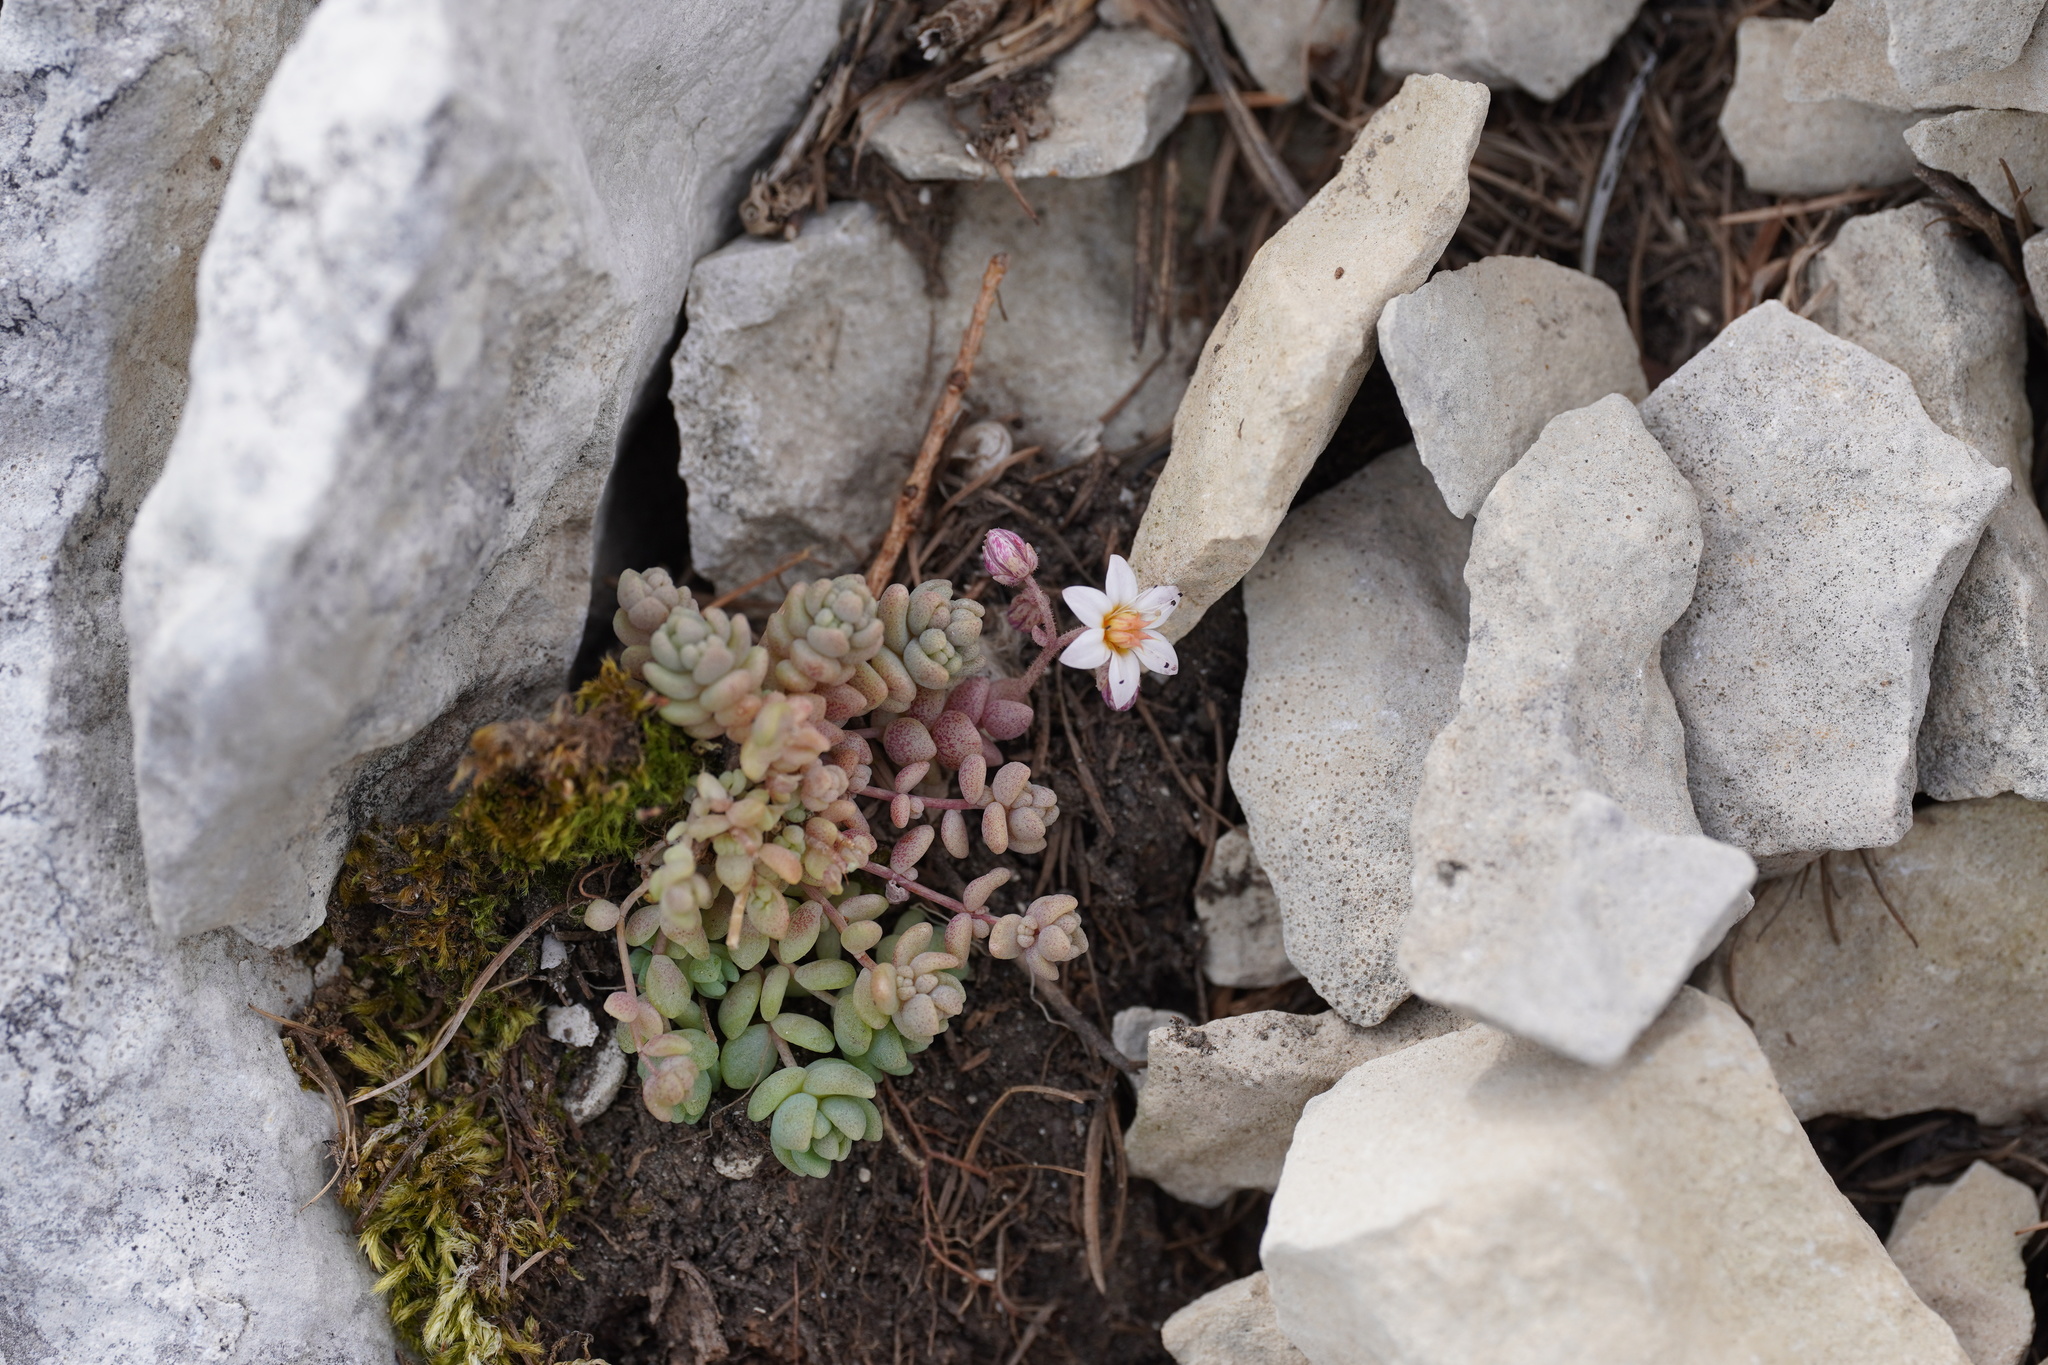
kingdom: Plantae
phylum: Tracheophyta
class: Magnoliopsida
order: Saxifragales
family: Crassulaceae
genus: Sedum
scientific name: Sedum dasyphyllum
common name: Thick-leaf stonecrop
